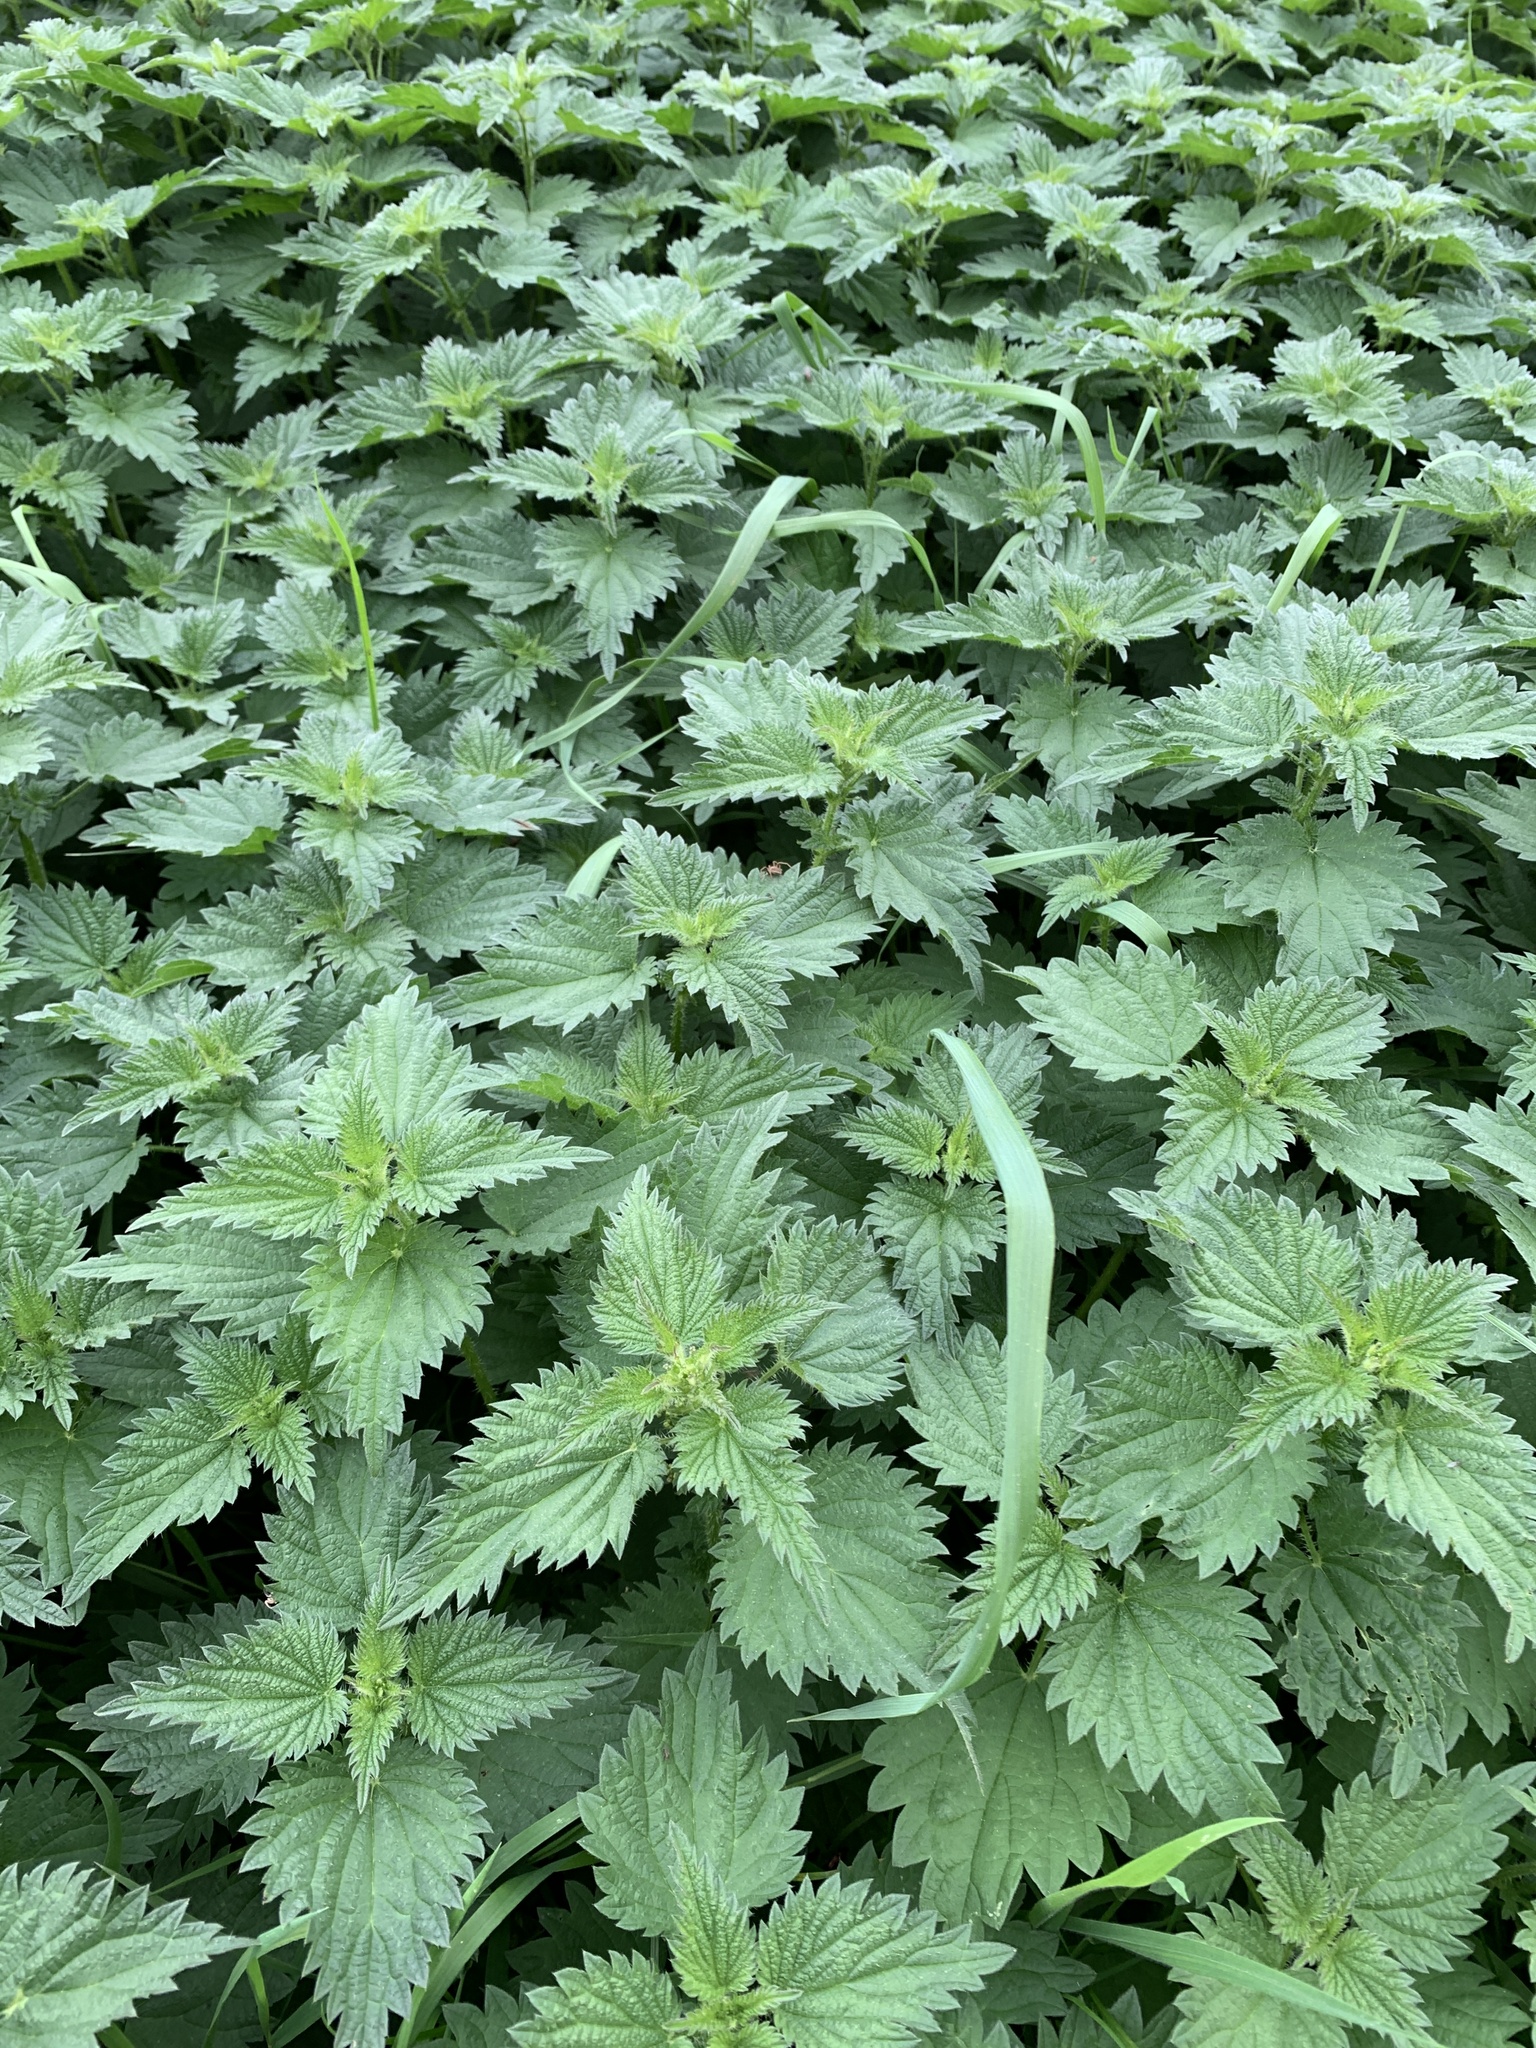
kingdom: Plantae
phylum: Tracheophyta
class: Magnoliopsida
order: Rosales
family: Urticaceae
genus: Urtica
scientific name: Urtica dioica
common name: Common nettle
